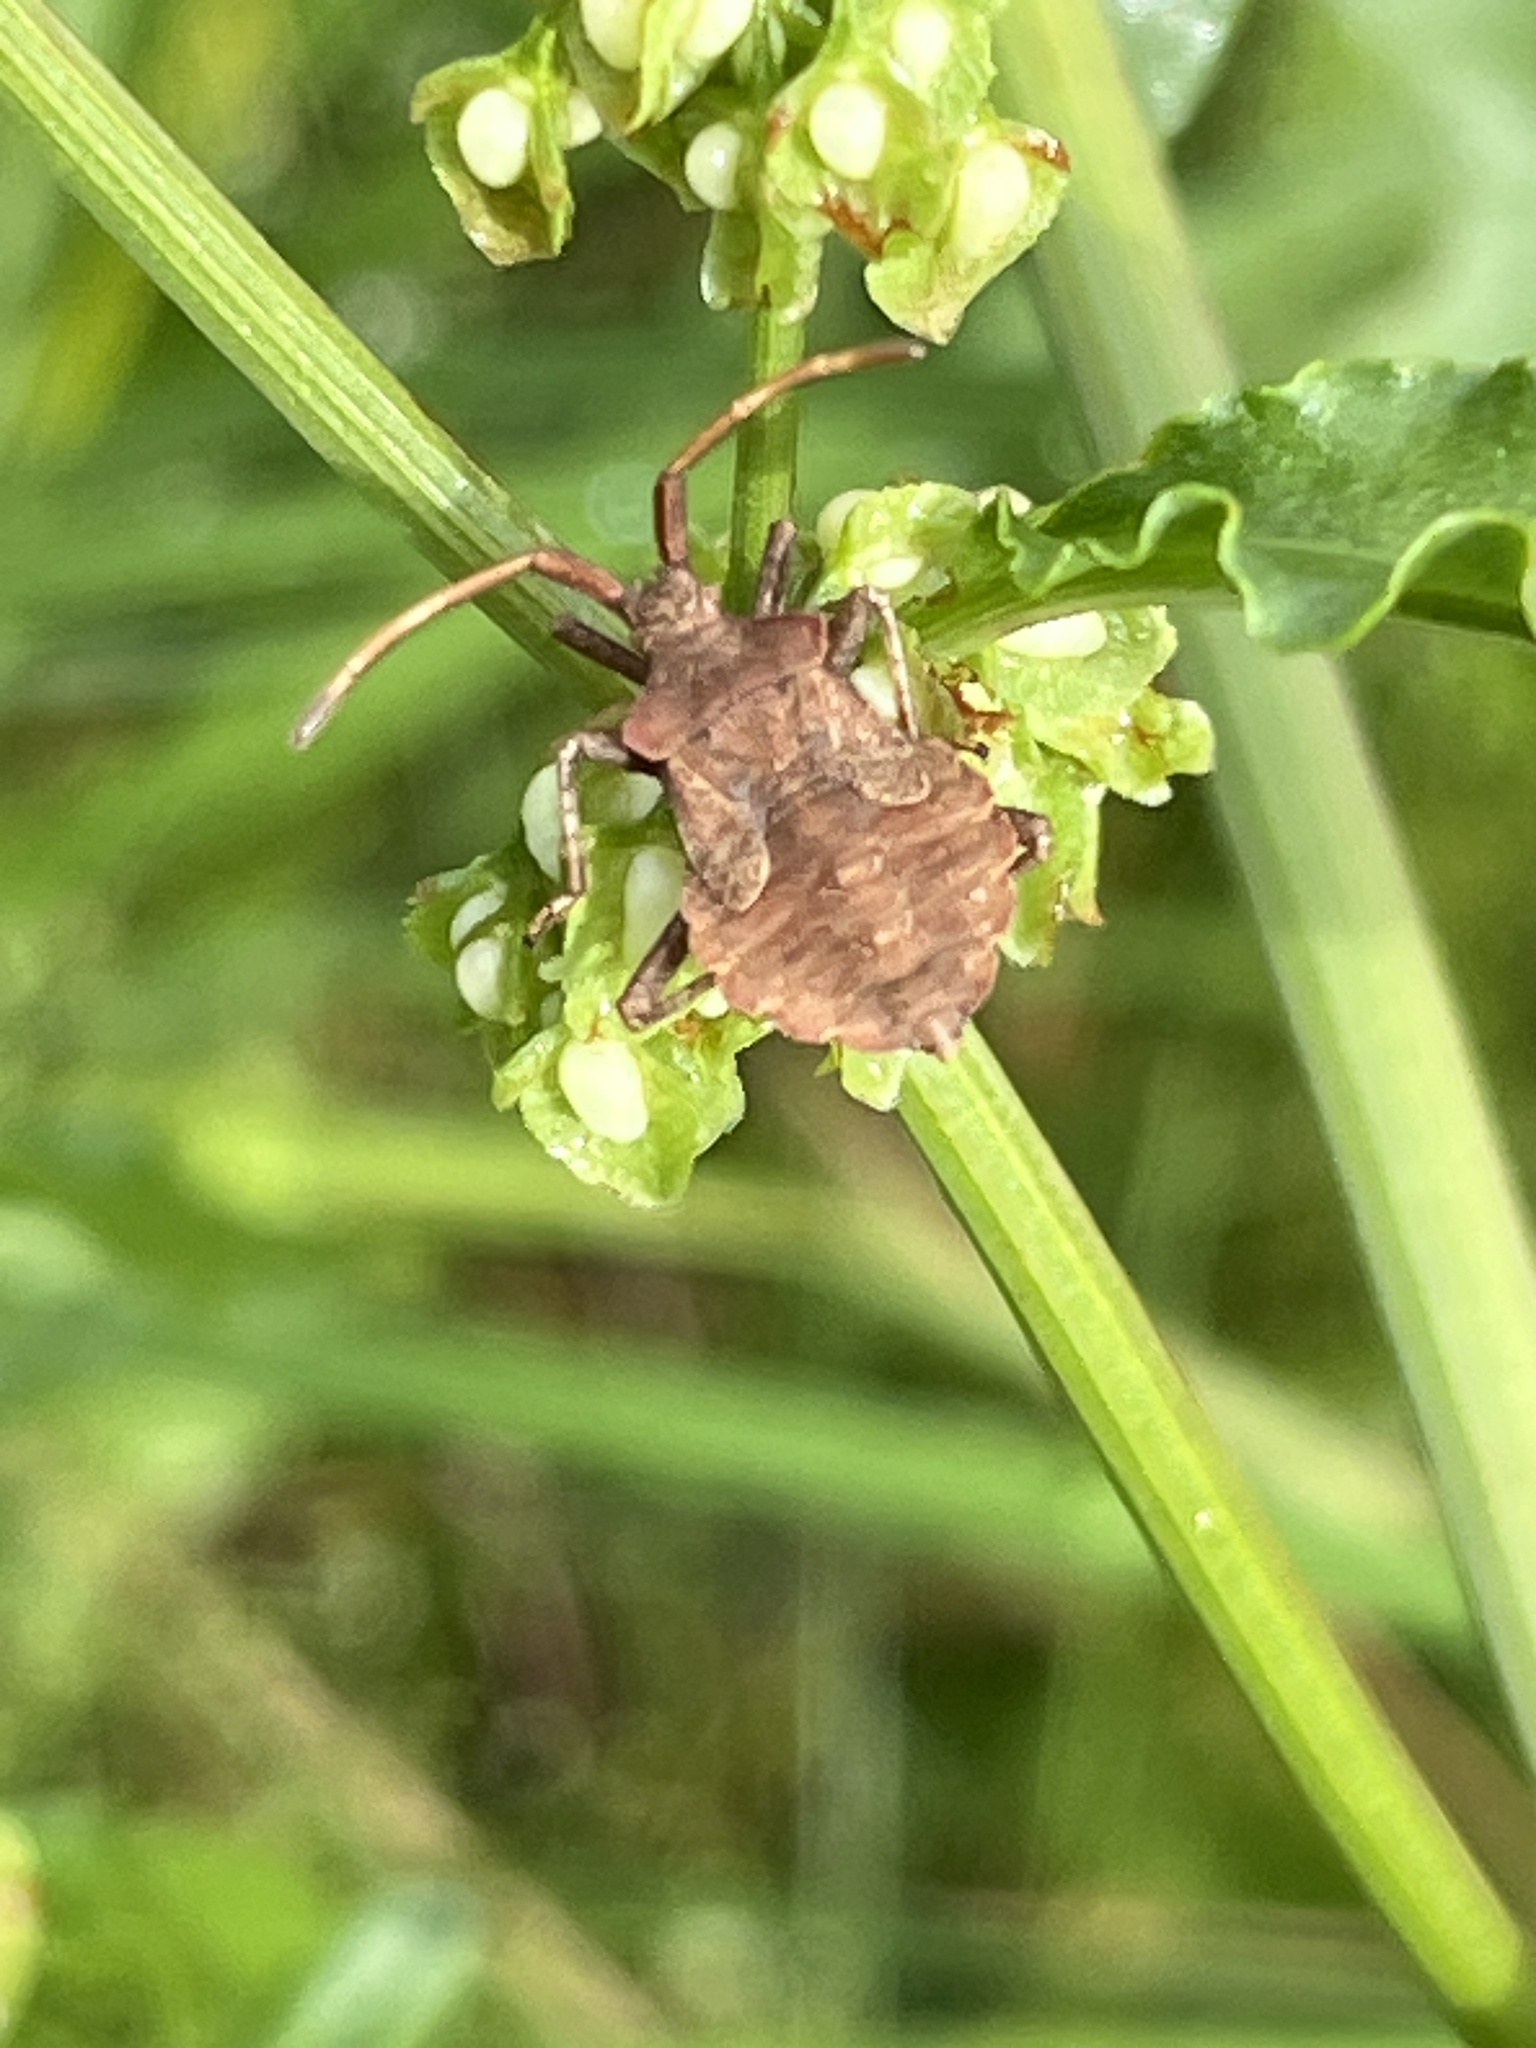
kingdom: Animalia
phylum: Arthropoda
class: Insecta
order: Hemiptera
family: Coreidae
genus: Coreus
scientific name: Coreus marginatus
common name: Dock bug
